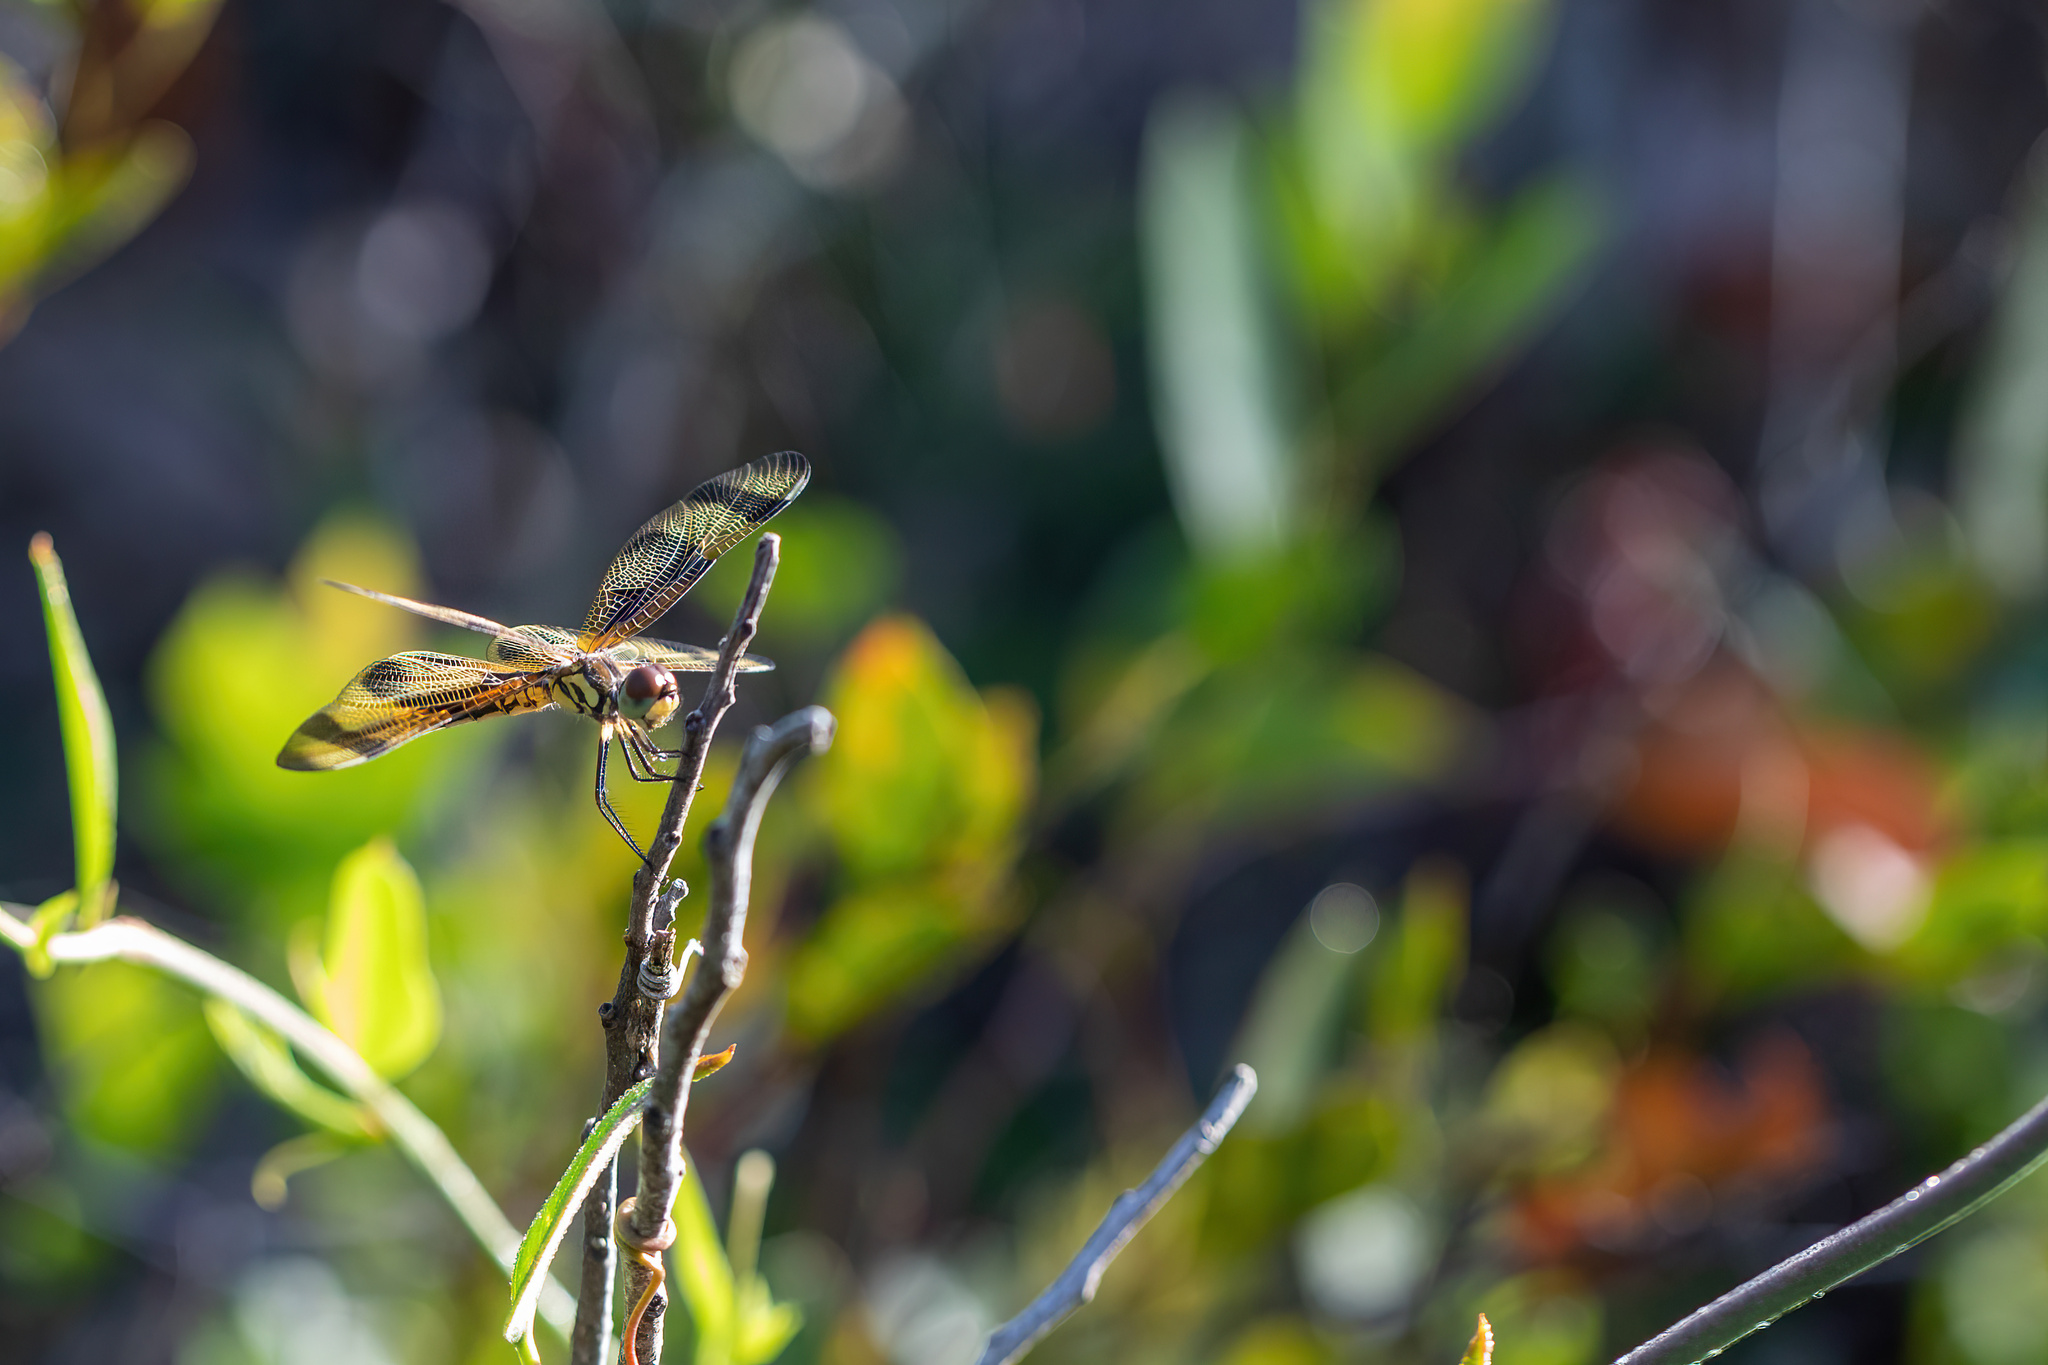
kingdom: Animalia
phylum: Arthropoda
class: Insecta
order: Odonata
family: Libellulidae
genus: Celithemis
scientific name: Celithemis eponina
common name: Halloween pennant
